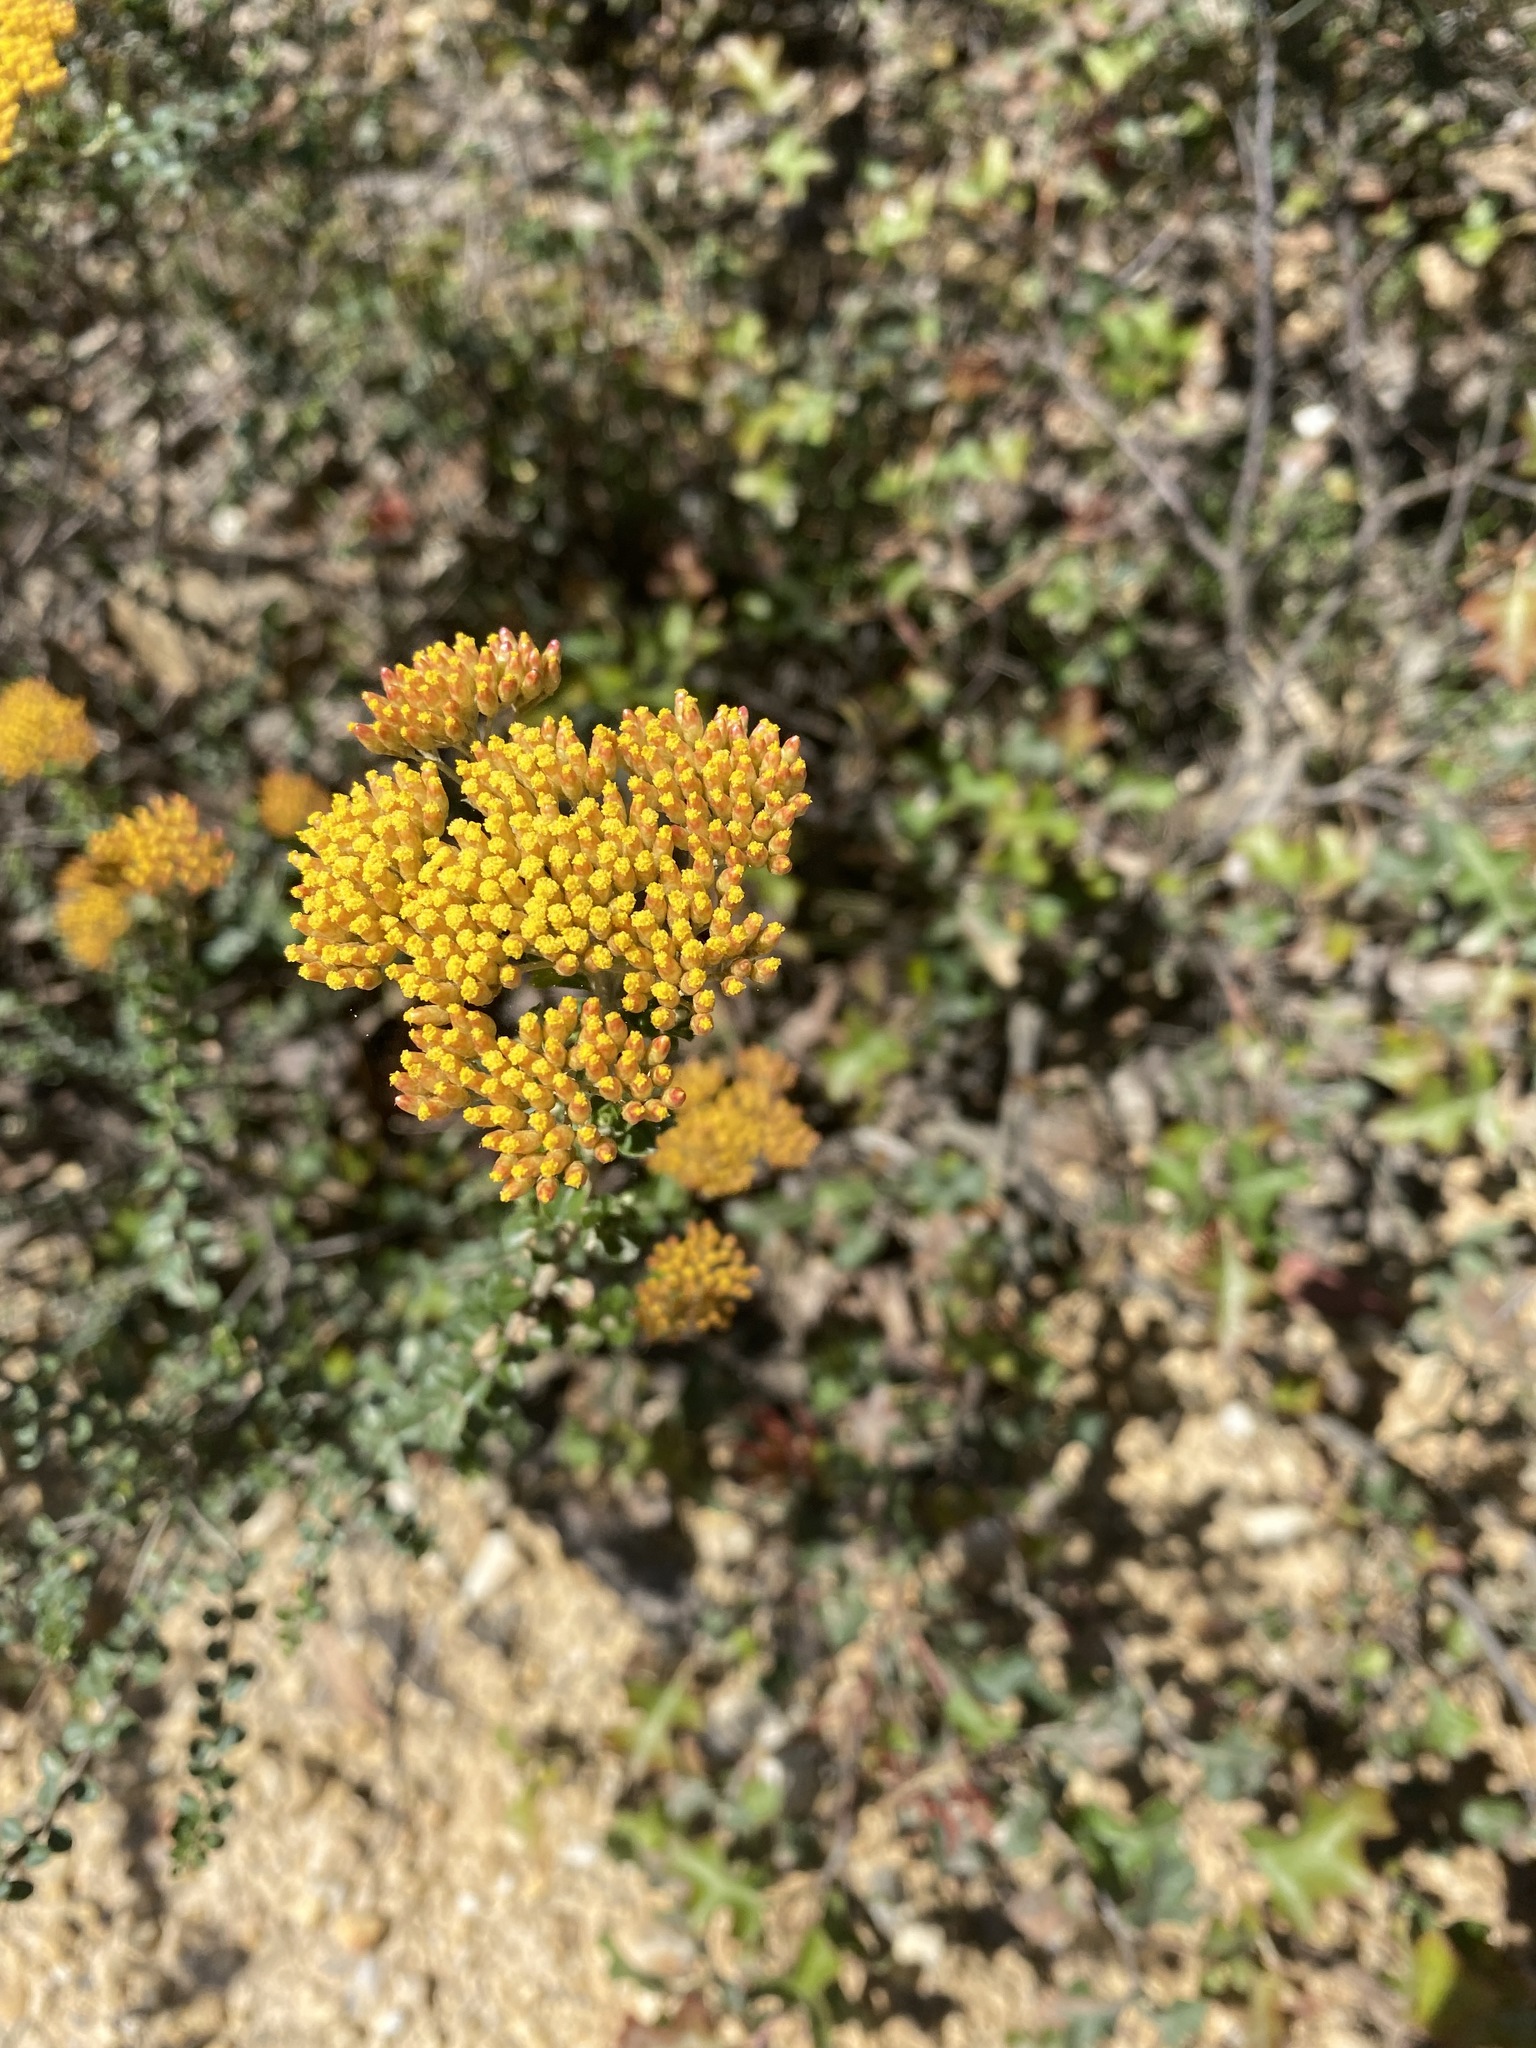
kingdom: Plantae
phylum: Tracheophyta
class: Magnoliopsida
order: Asterales
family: Asteraceae
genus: Ozothamnus
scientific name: Ozothamnus obcordatus
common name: Grey everlasting
